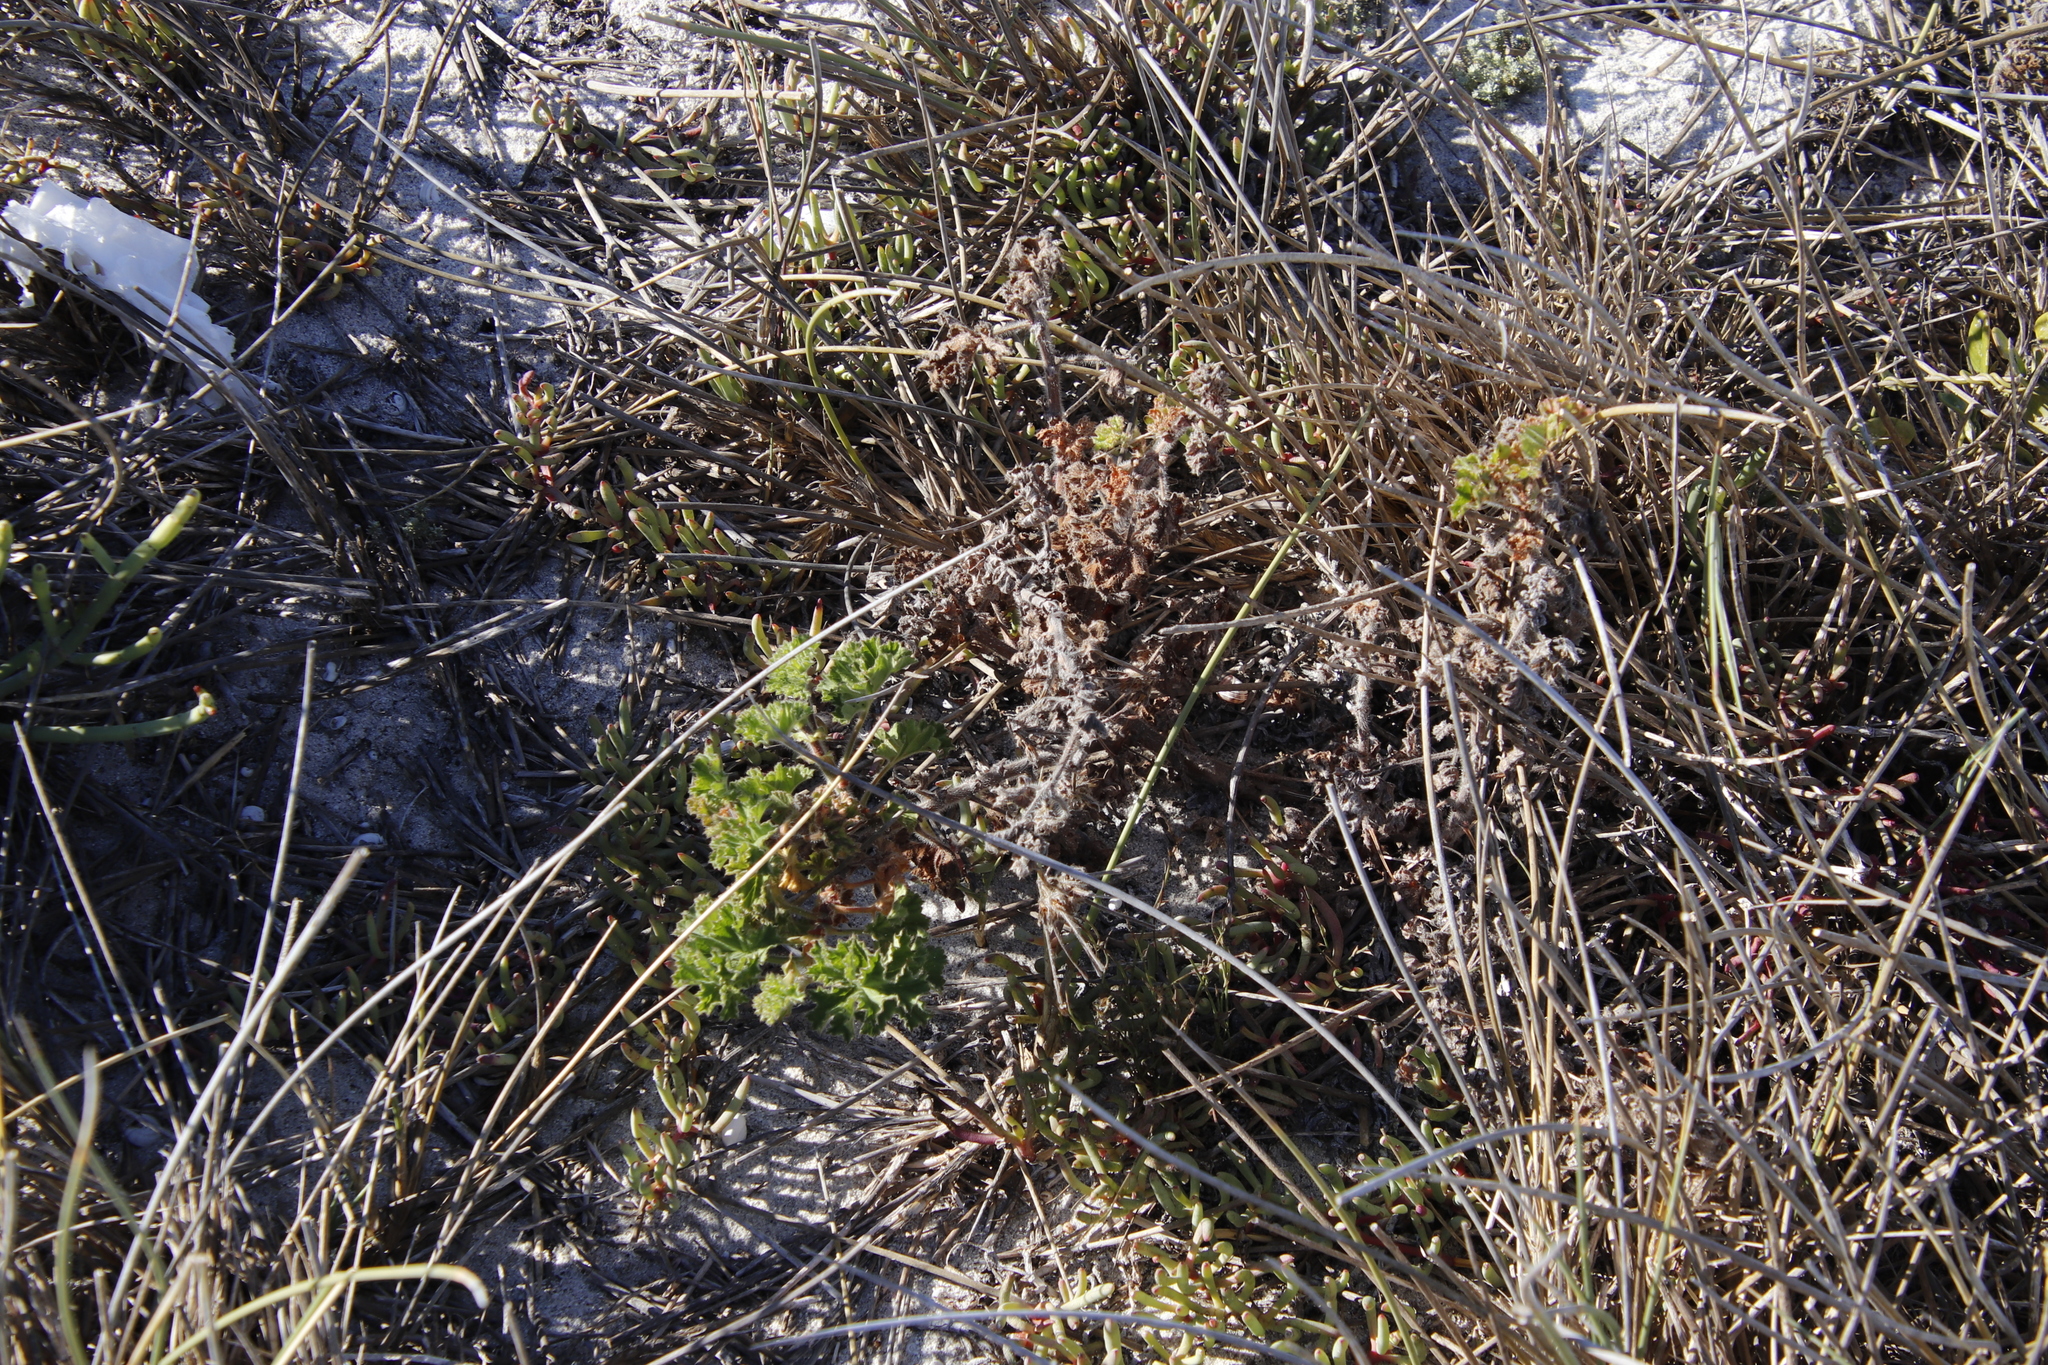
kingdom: Plantae
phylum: Tracheophyta
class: Magnoliopsida
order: Geraniales
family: Geraniaceae
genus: Pelargonium
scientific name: Pelargonium capitatum
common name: Rose scented geranium
